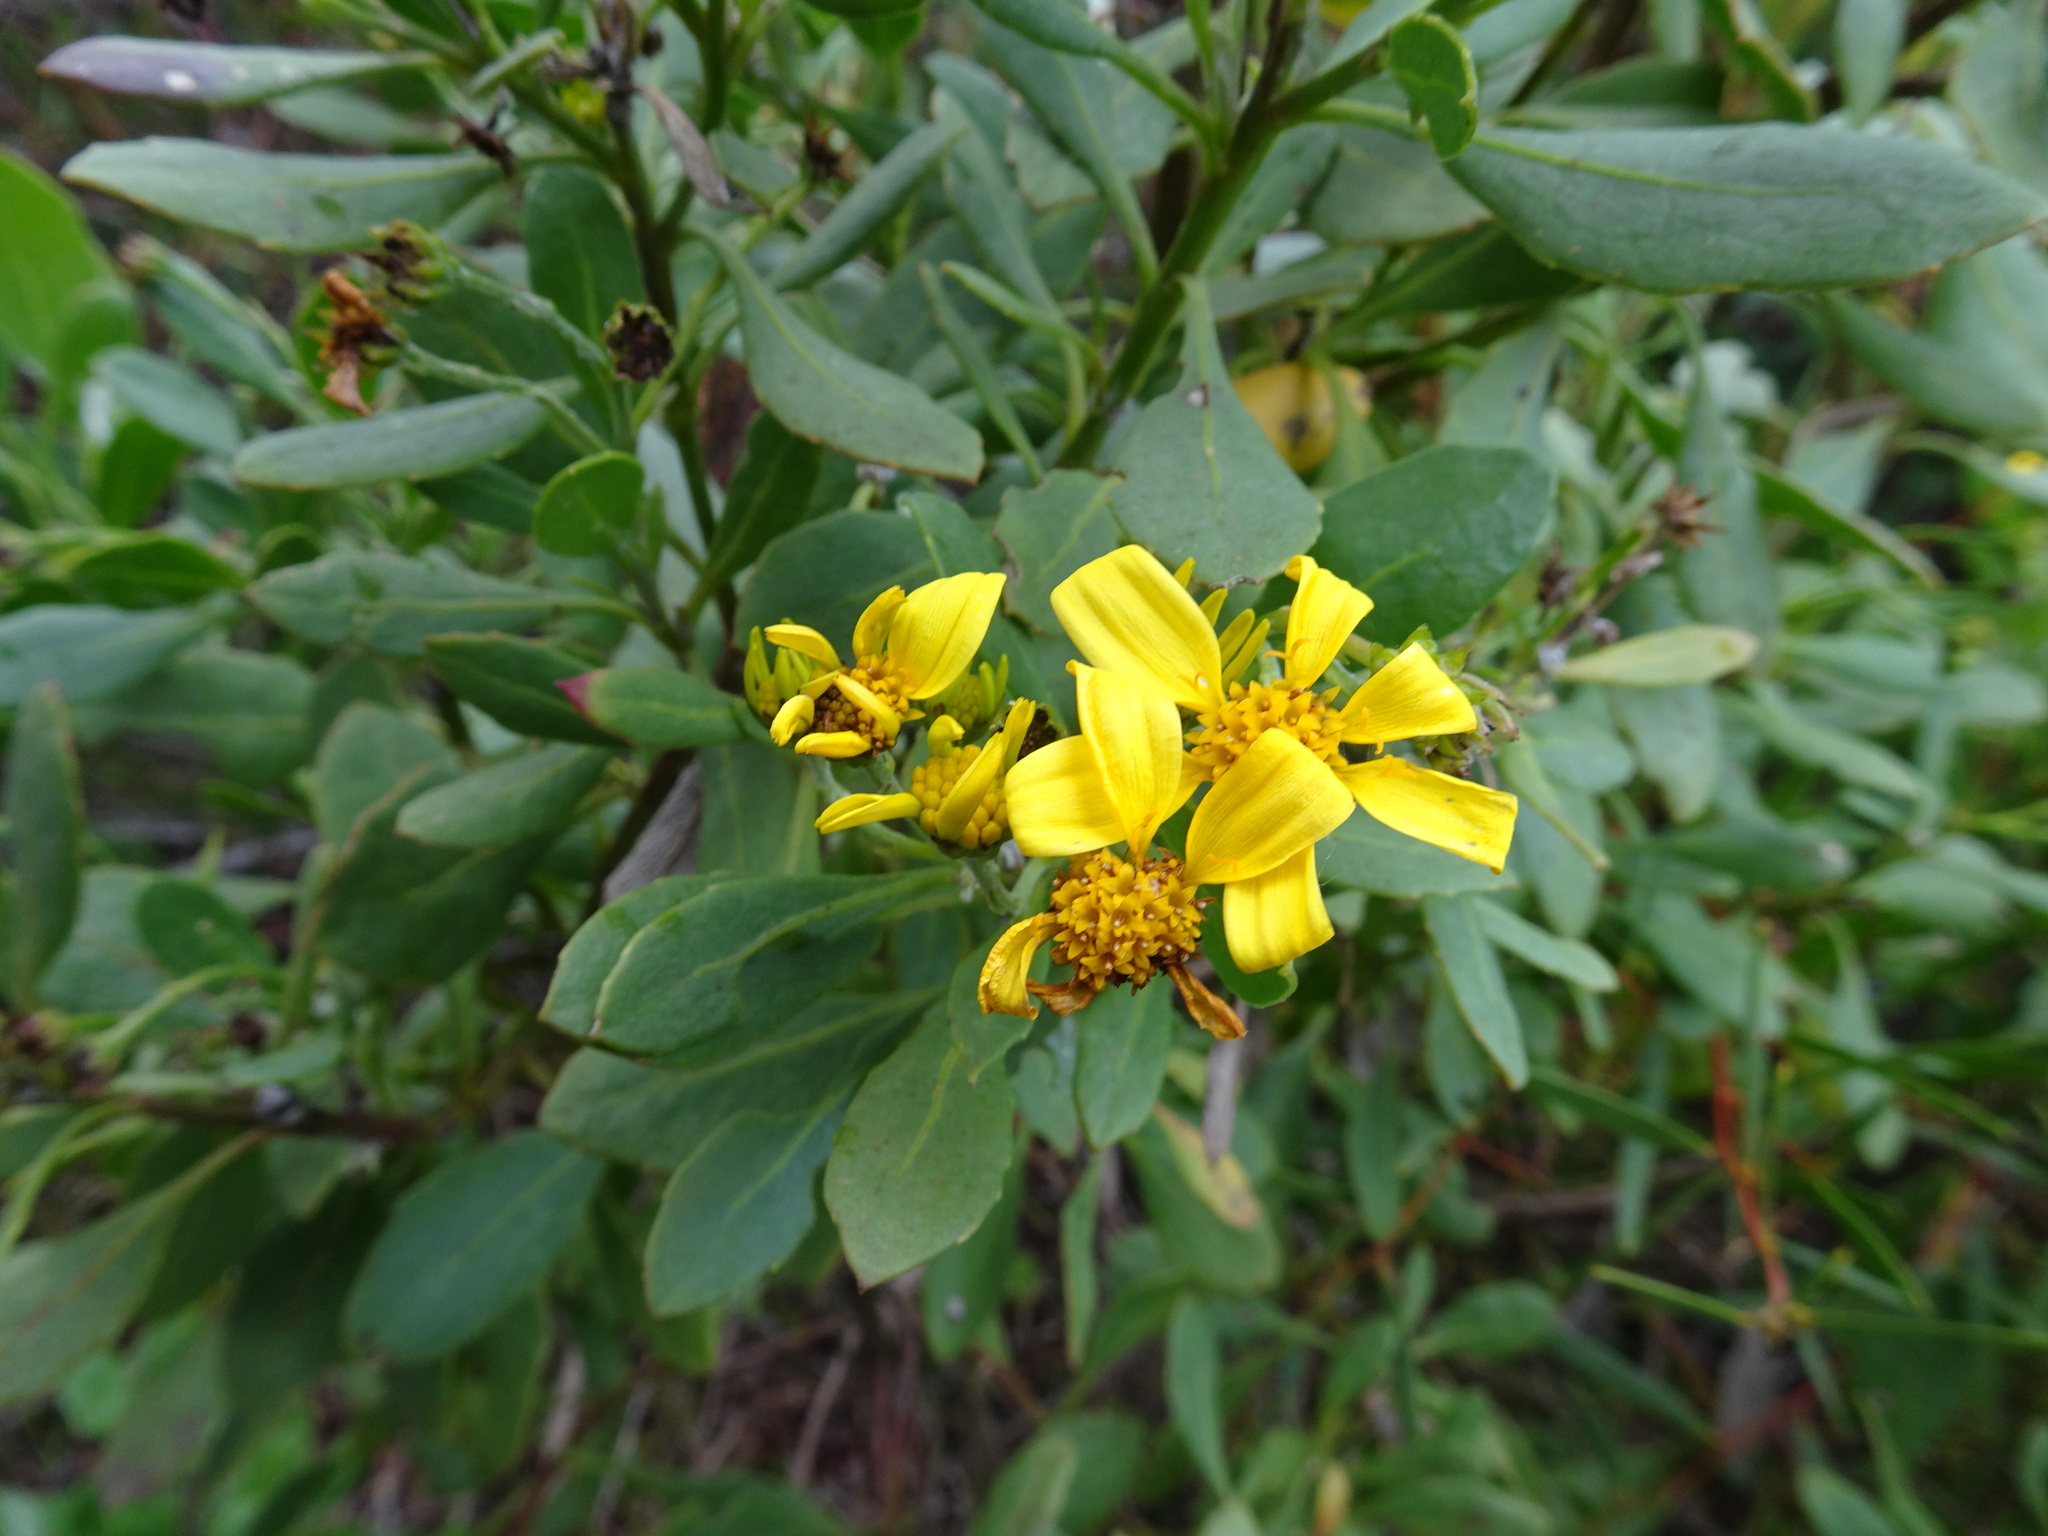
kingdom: Plantae
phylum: Tracheophyta
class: Magnoliopsida
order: Asterales
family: Asteraceae
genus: Osteospermum
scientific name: Osteospermum moniliferum
